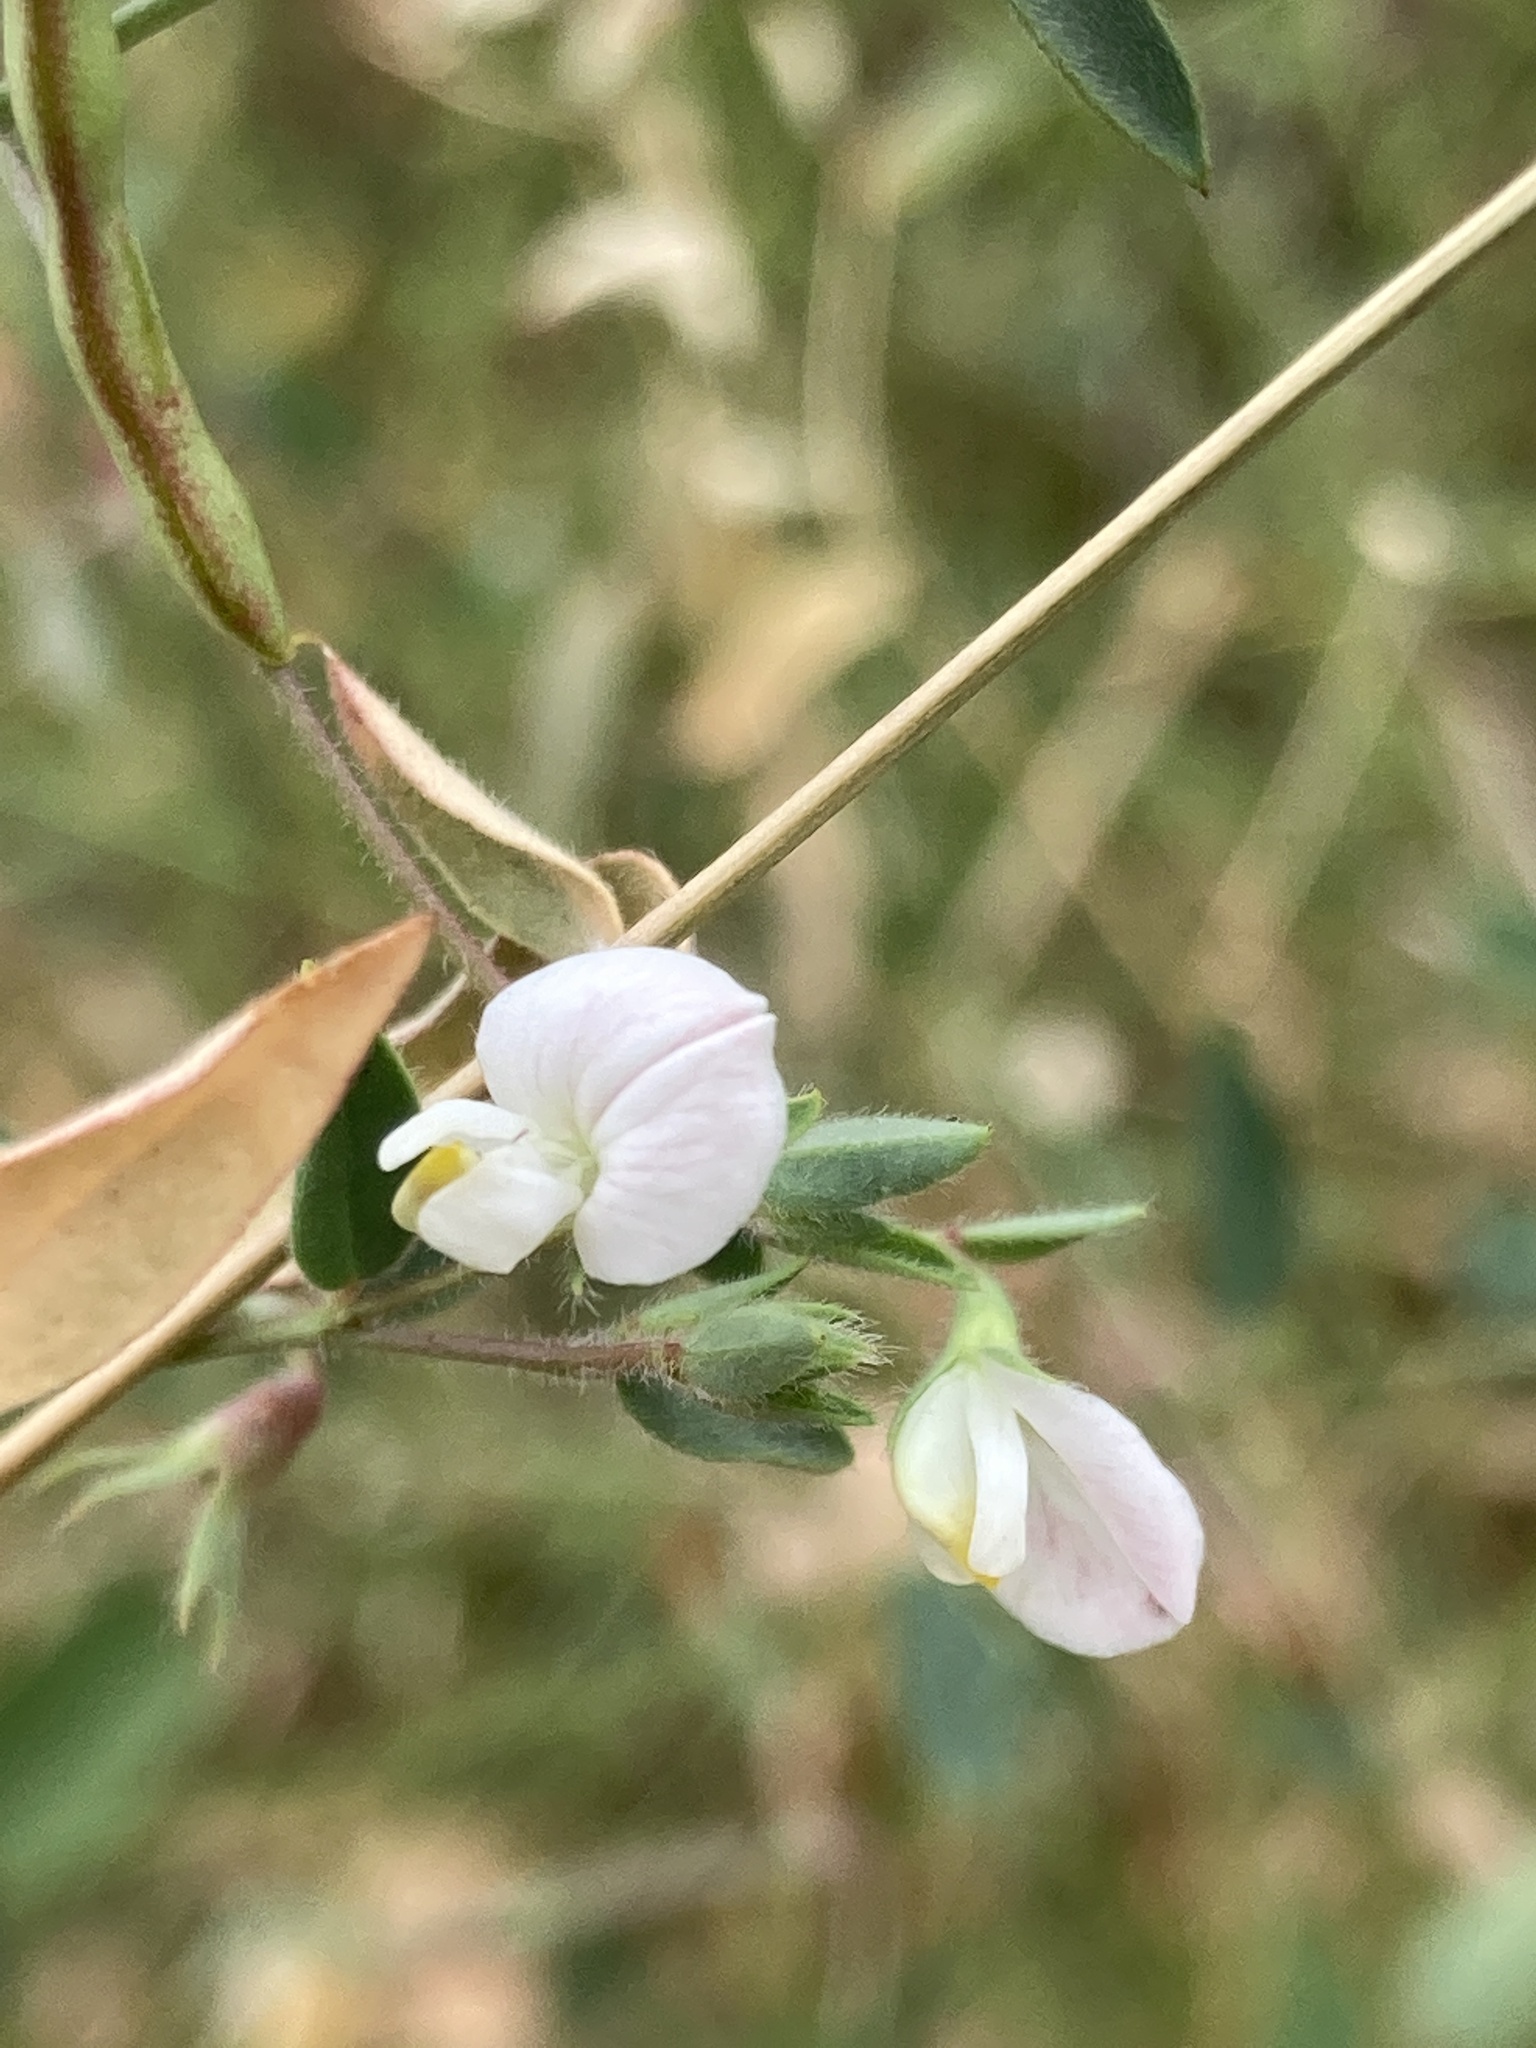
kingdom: Plantae
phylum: Tracheophyta
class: Magnoliopsida
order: Fabales
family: Fabaceae
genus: Acmispon
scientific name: Acmispon americanus
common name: American bird's-foot trefoil
